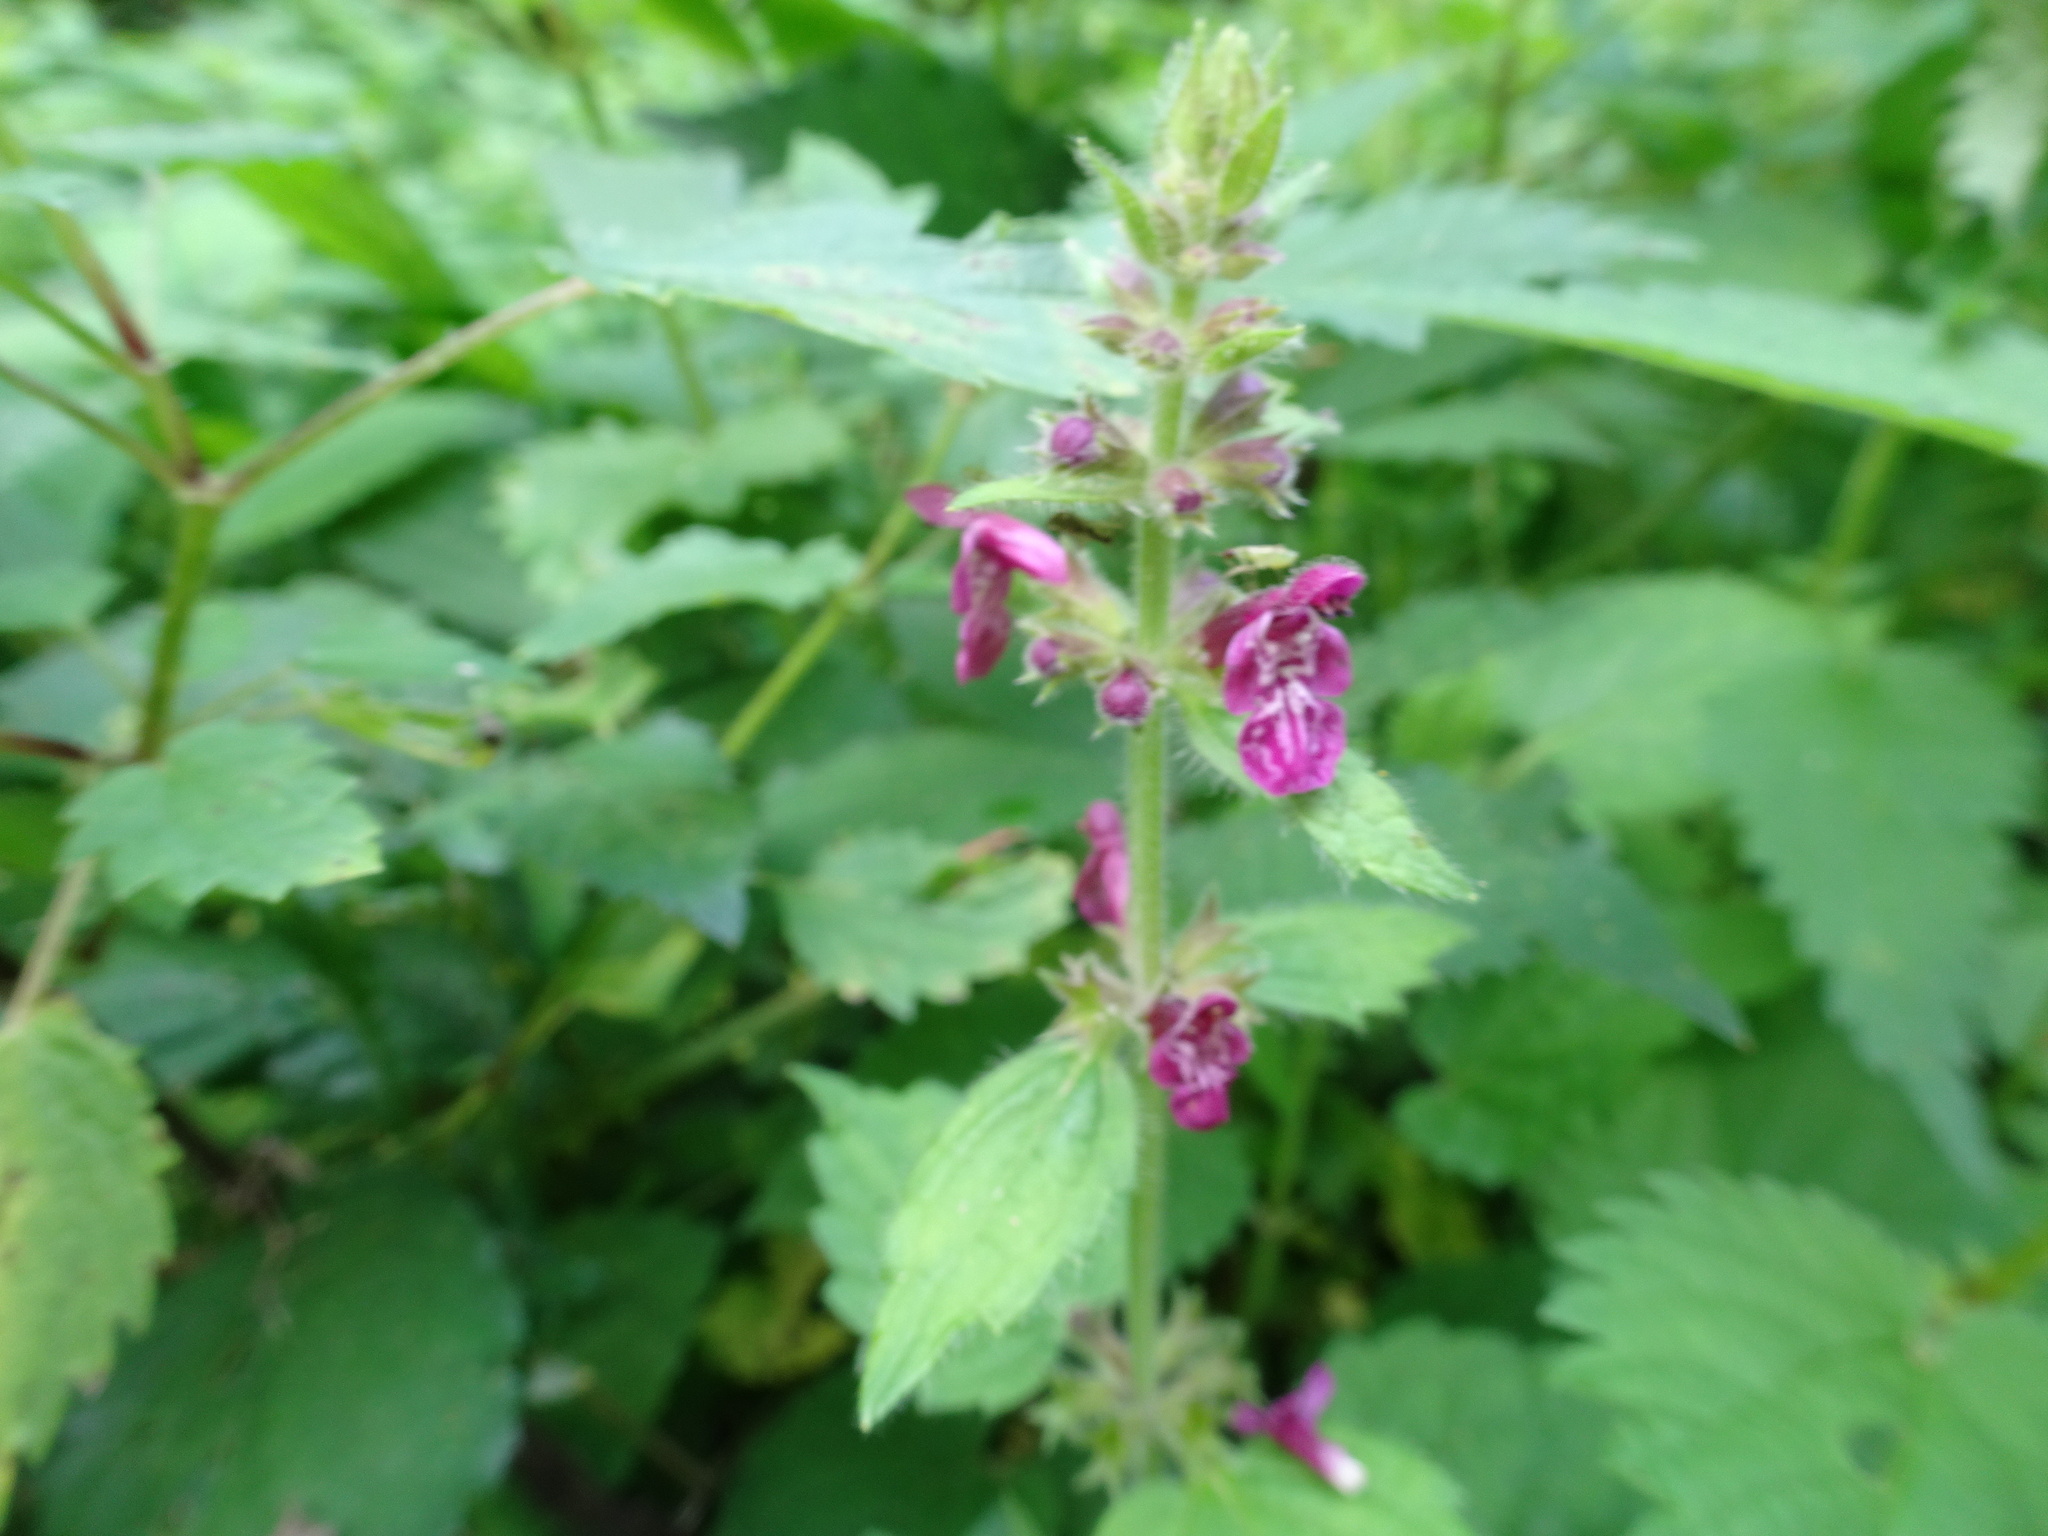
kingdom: Plantae
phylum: Tracheophyta
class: Magnoliopsida
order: Lamiales
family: Lamiaceae
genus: Stachys
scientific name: Stachys sylvatica
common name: Hedge woundwort
